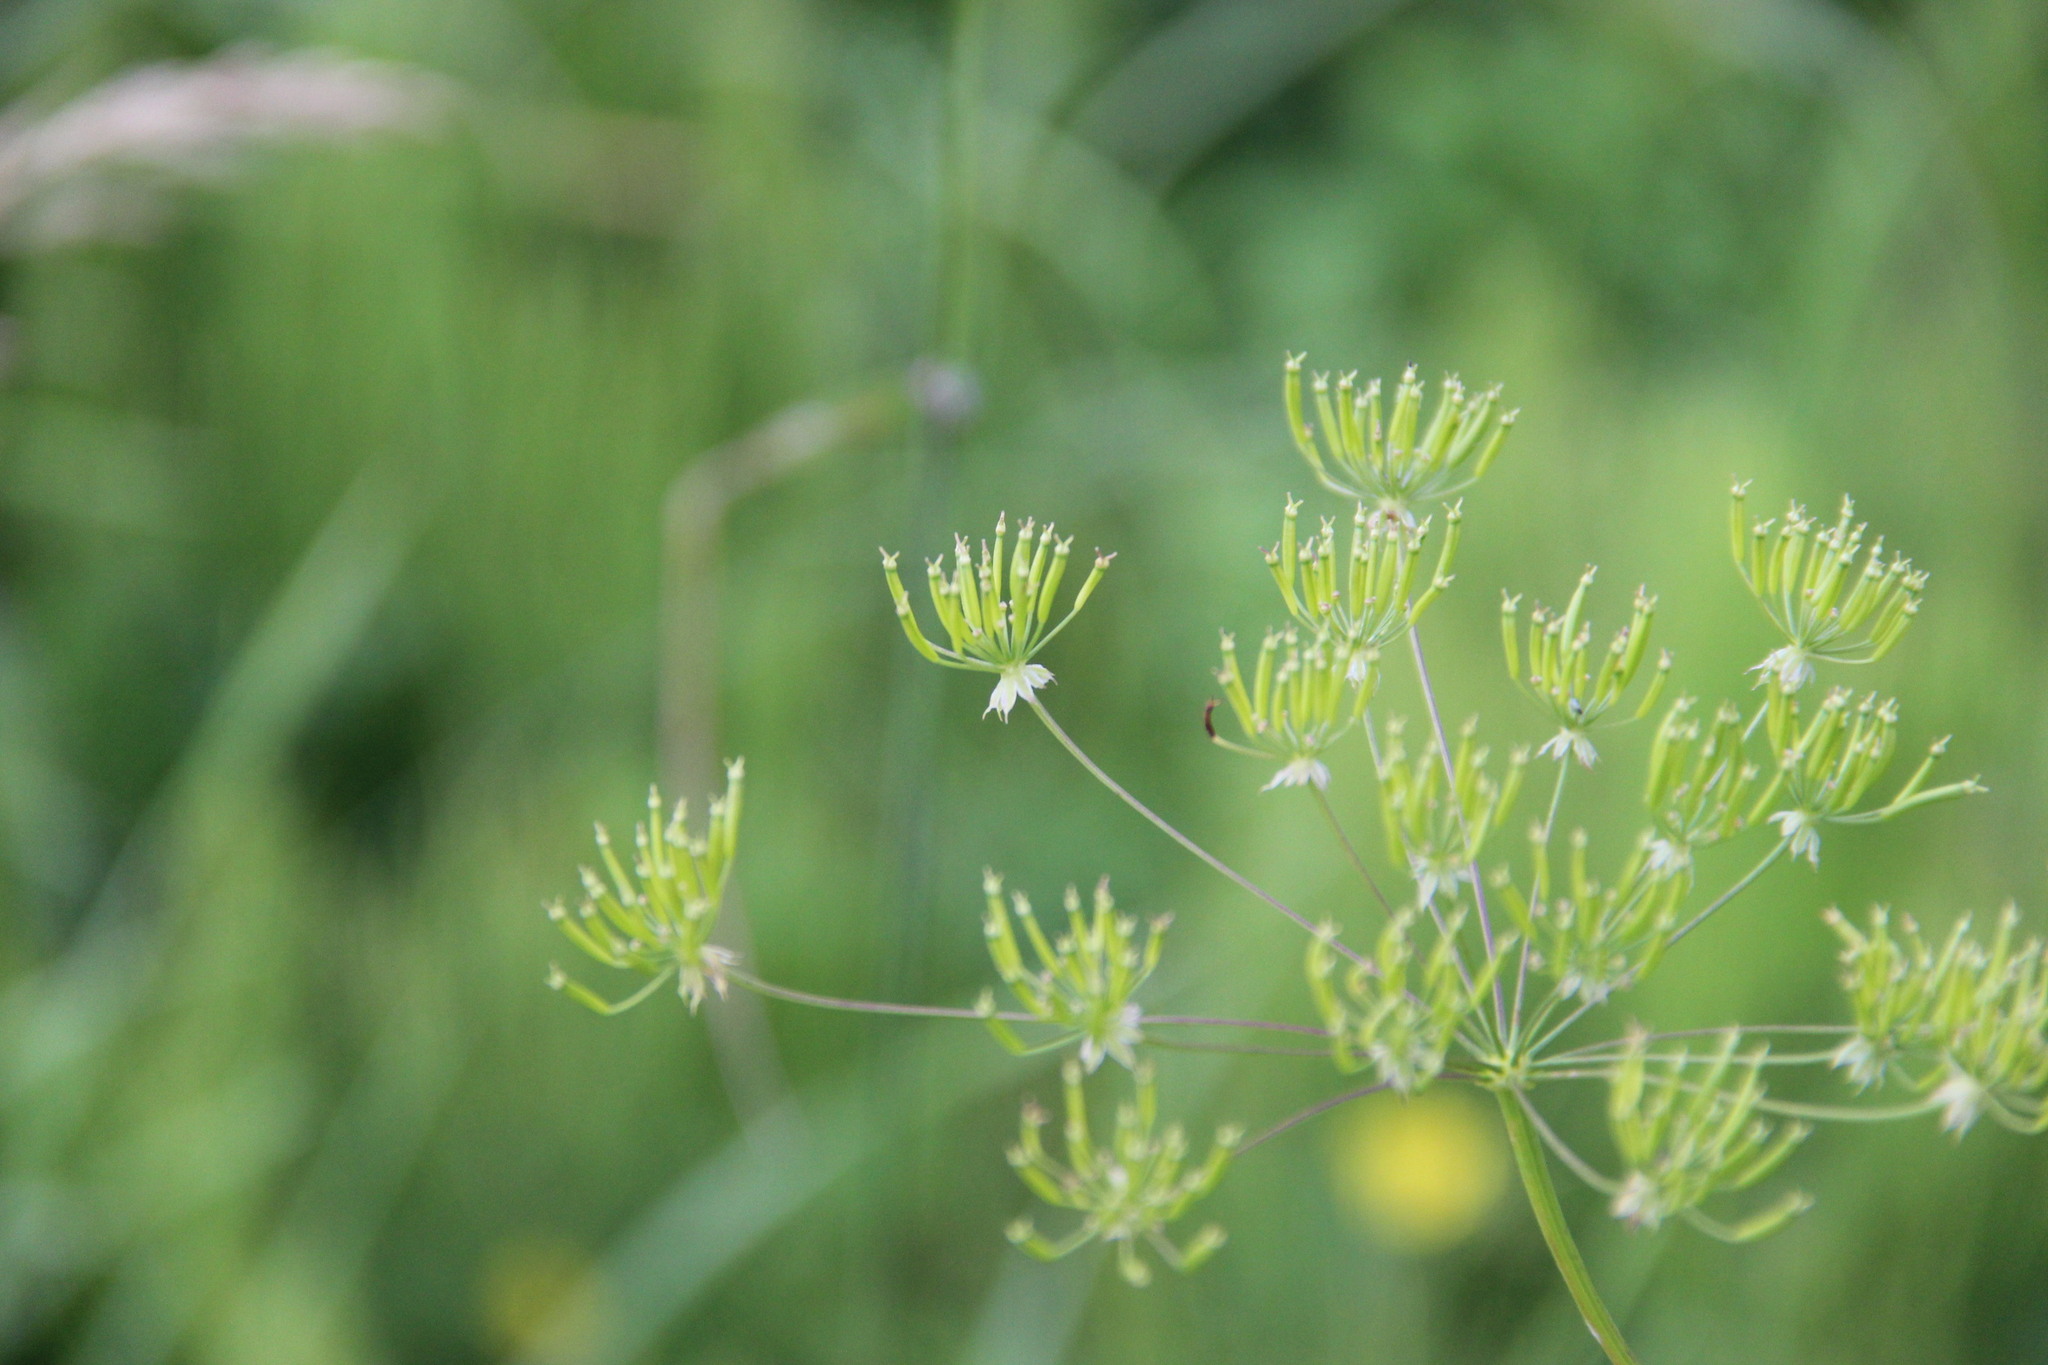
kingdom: Plantae
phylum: Tracheophyta
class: Magnoliopsida
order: Apiales
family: Apiaceae
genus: Chaerophyllum
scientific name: Chaerophyllum prescottii
